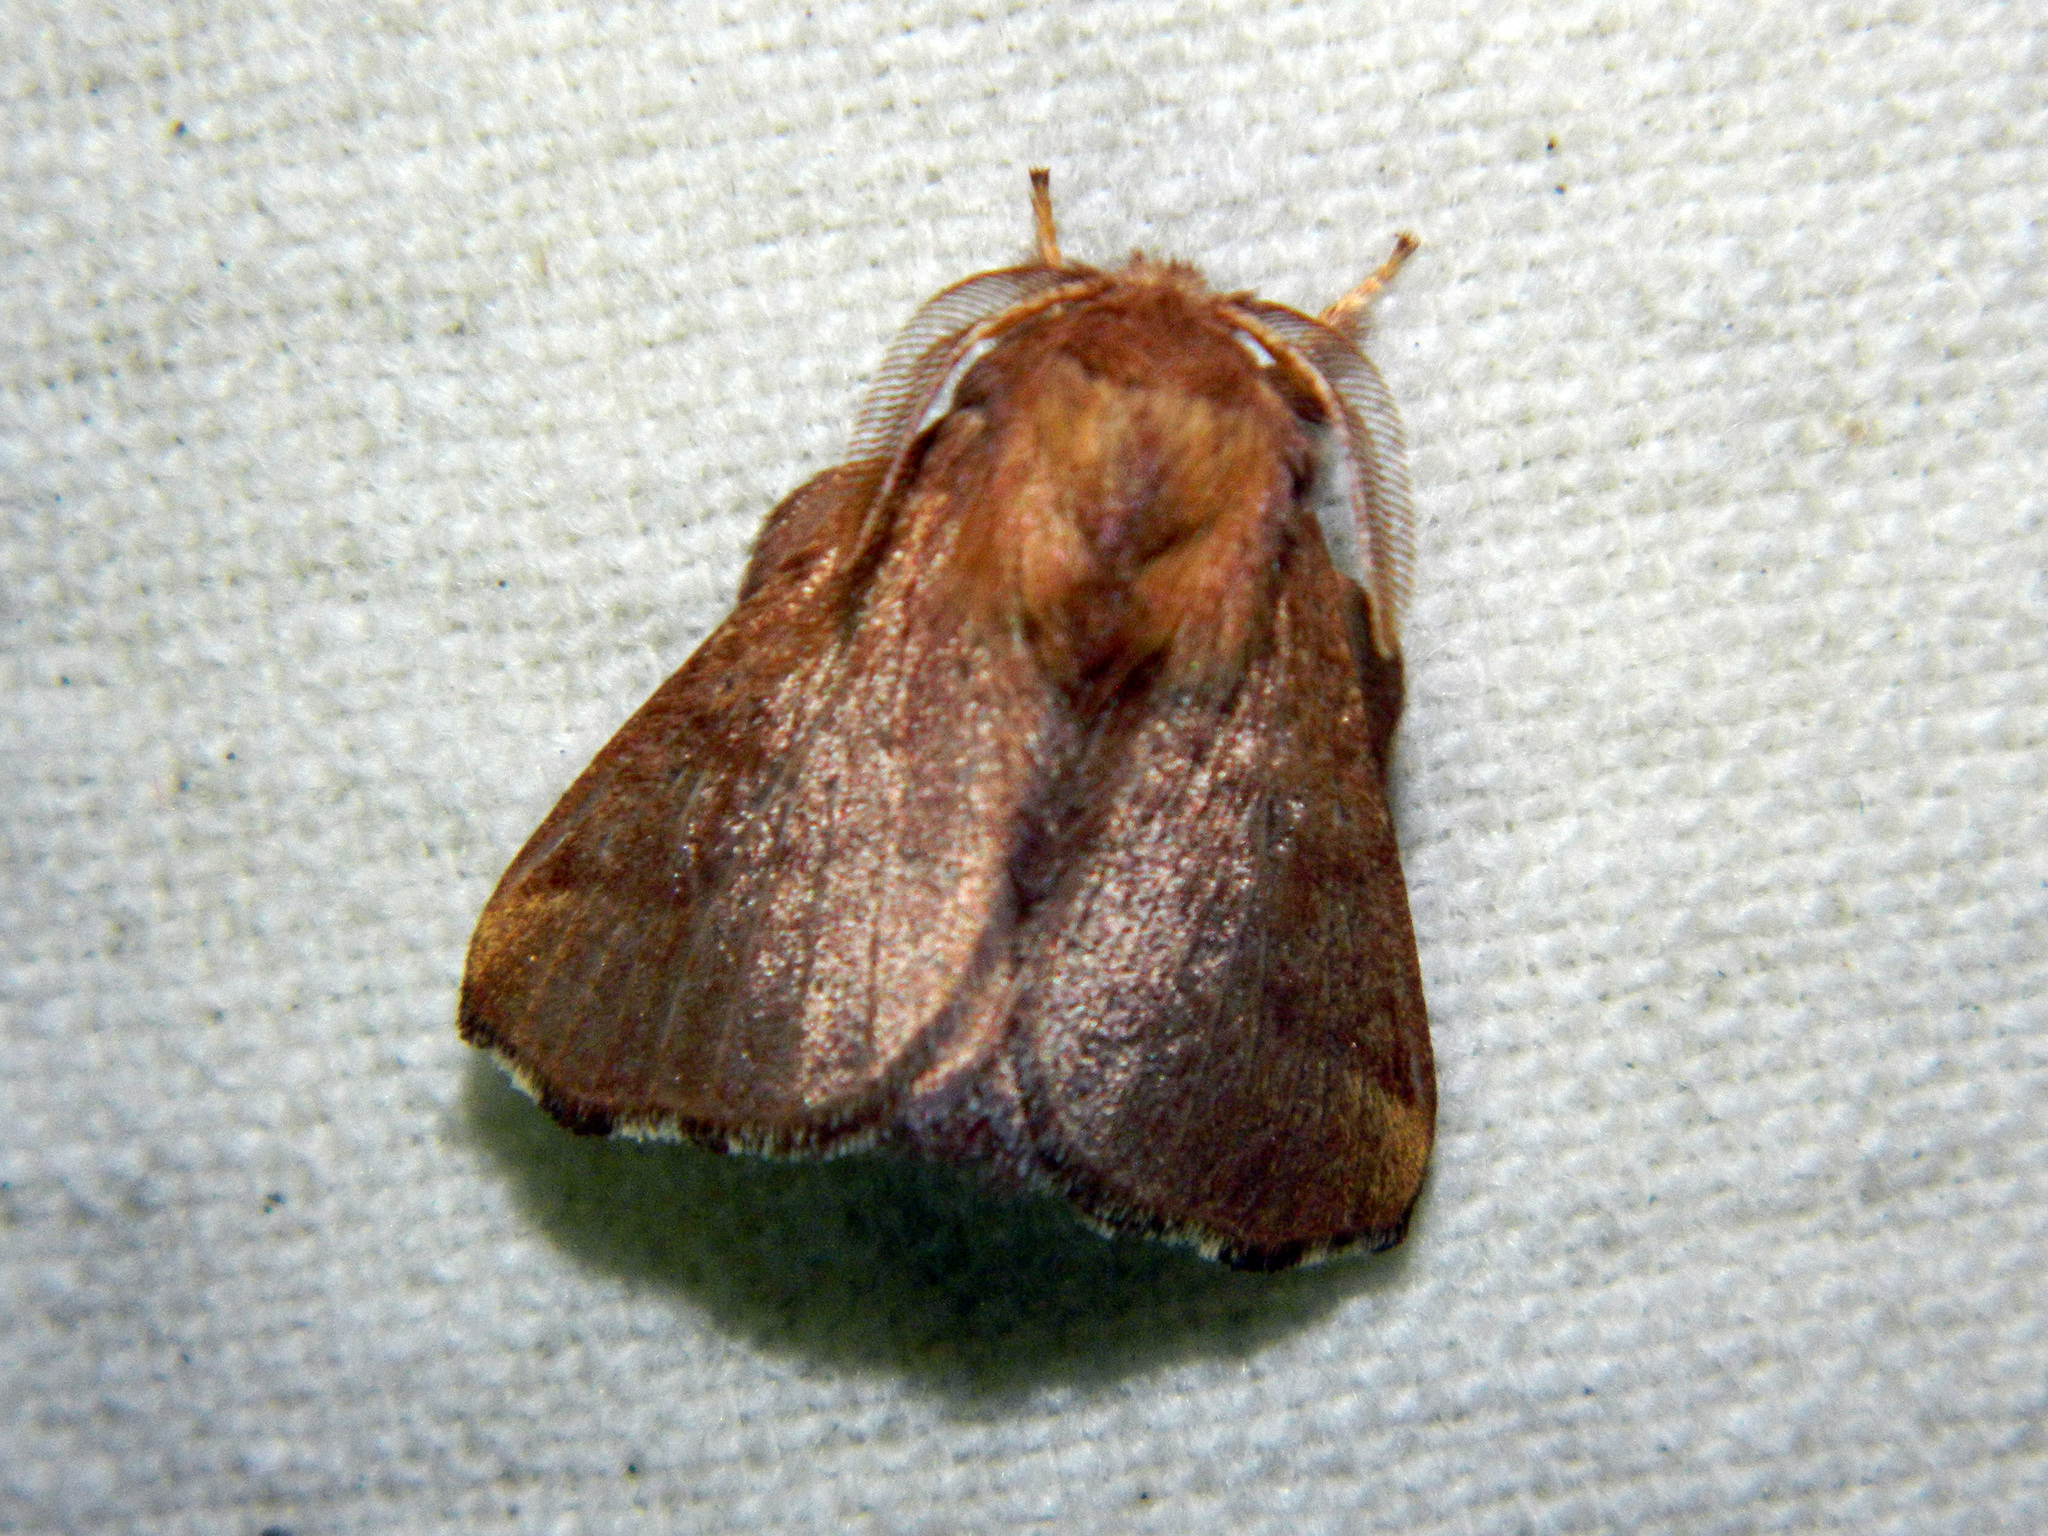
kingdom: Animalia
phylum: Arthropoda
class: Insecta
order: Lepidoptera
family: Lasiocampidae
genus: Malacosoma
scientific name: Malacosoma disstria
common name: Forest tent caterpillar
